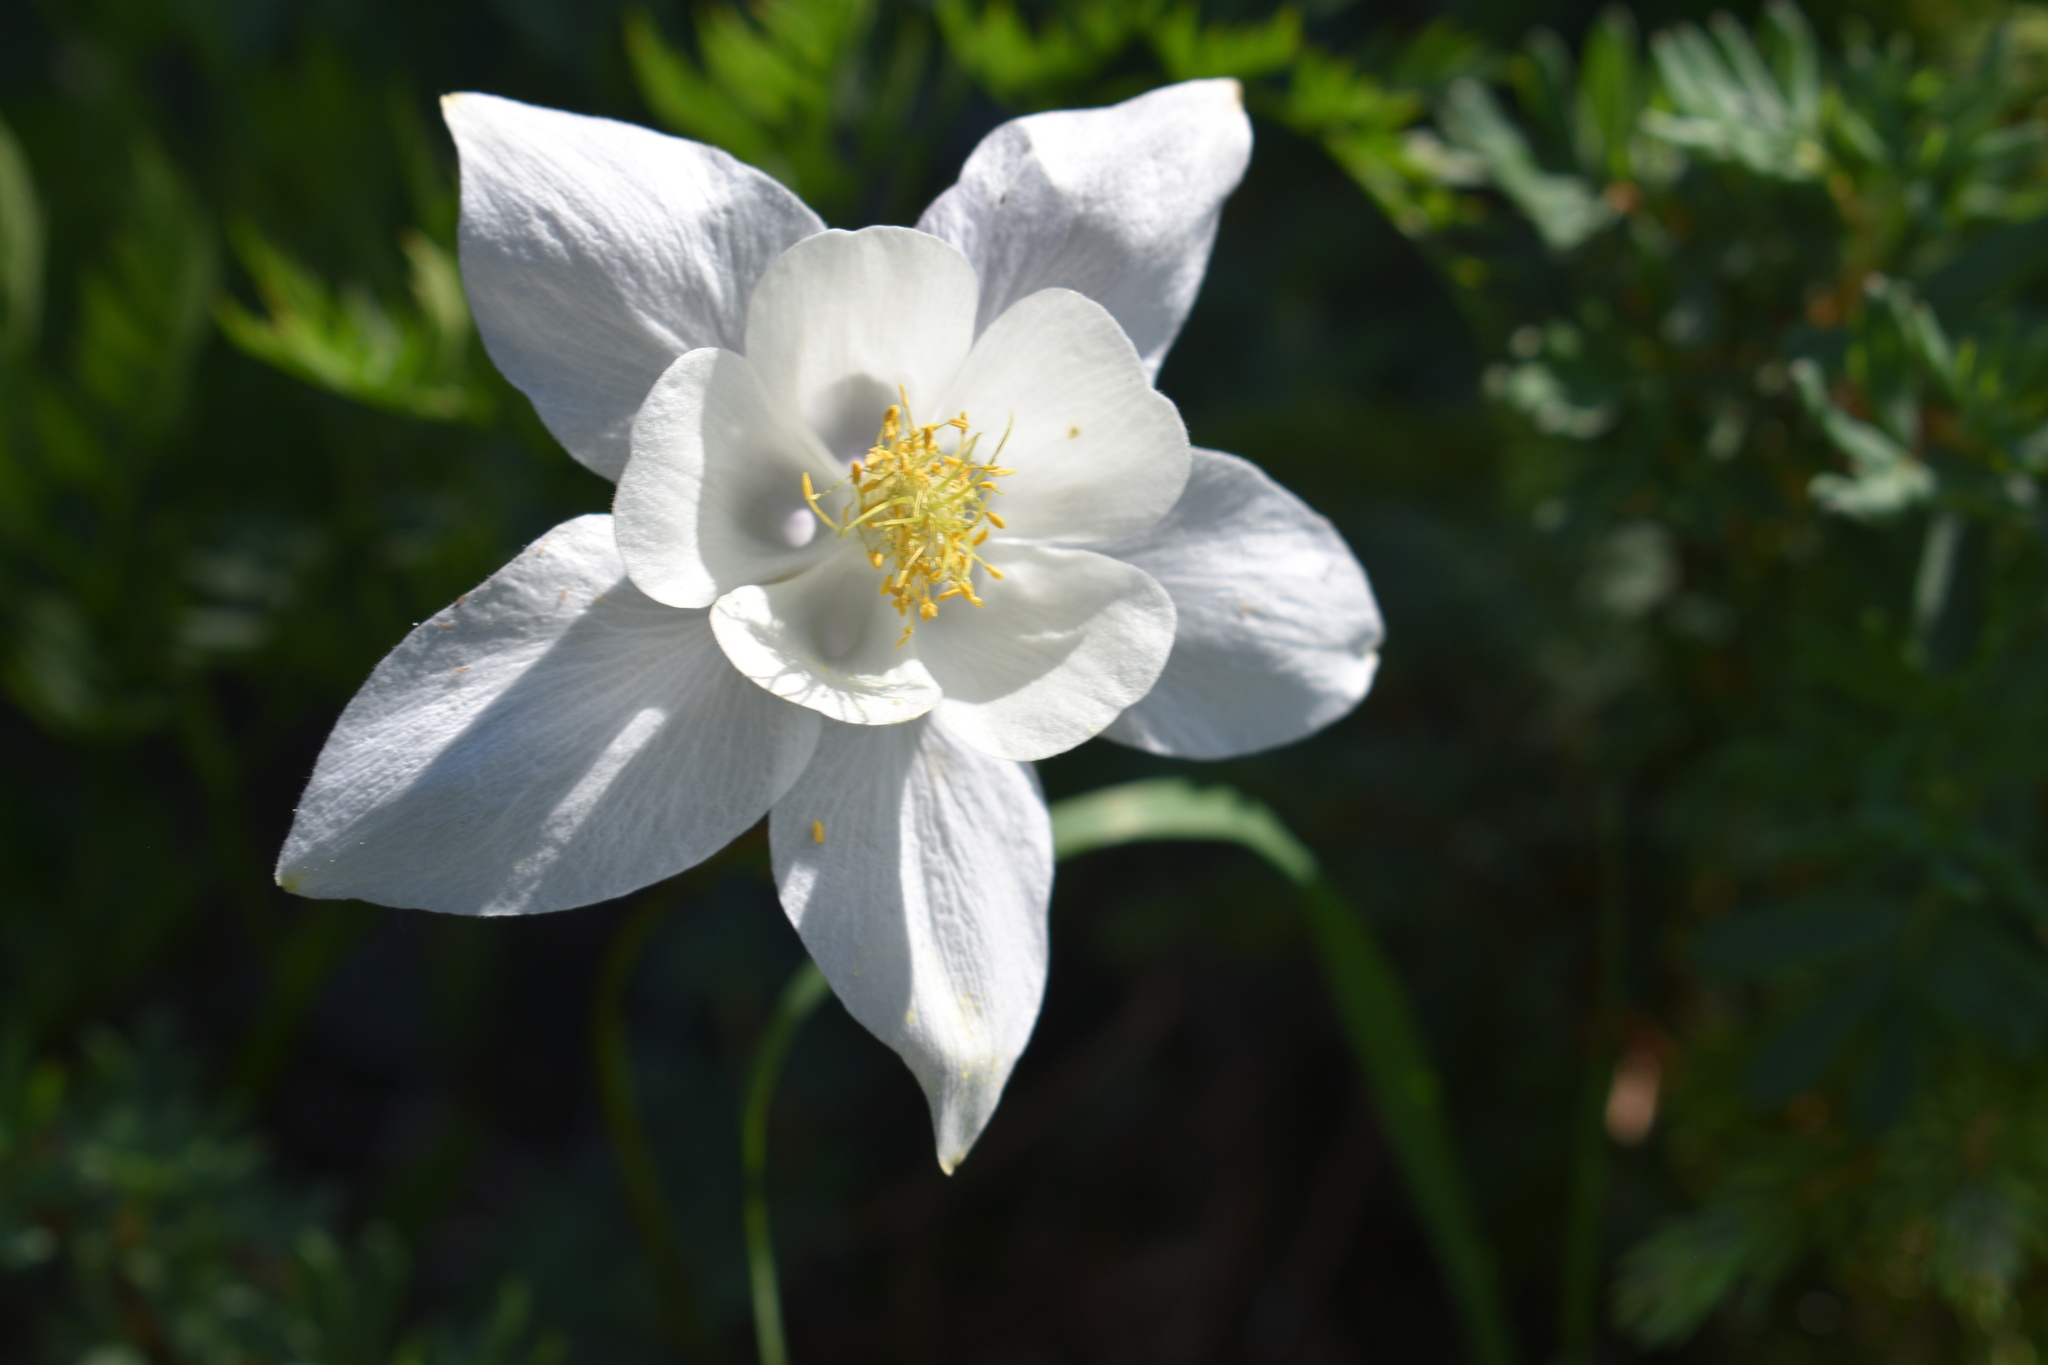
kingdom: Plantae
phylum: Tracheophyta
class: Magnoliopsida
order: Ranunculales
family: Ranunculaceae
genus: Aquilegia
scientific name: Aquilegia coerulea
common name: Rocky mountain columbine
